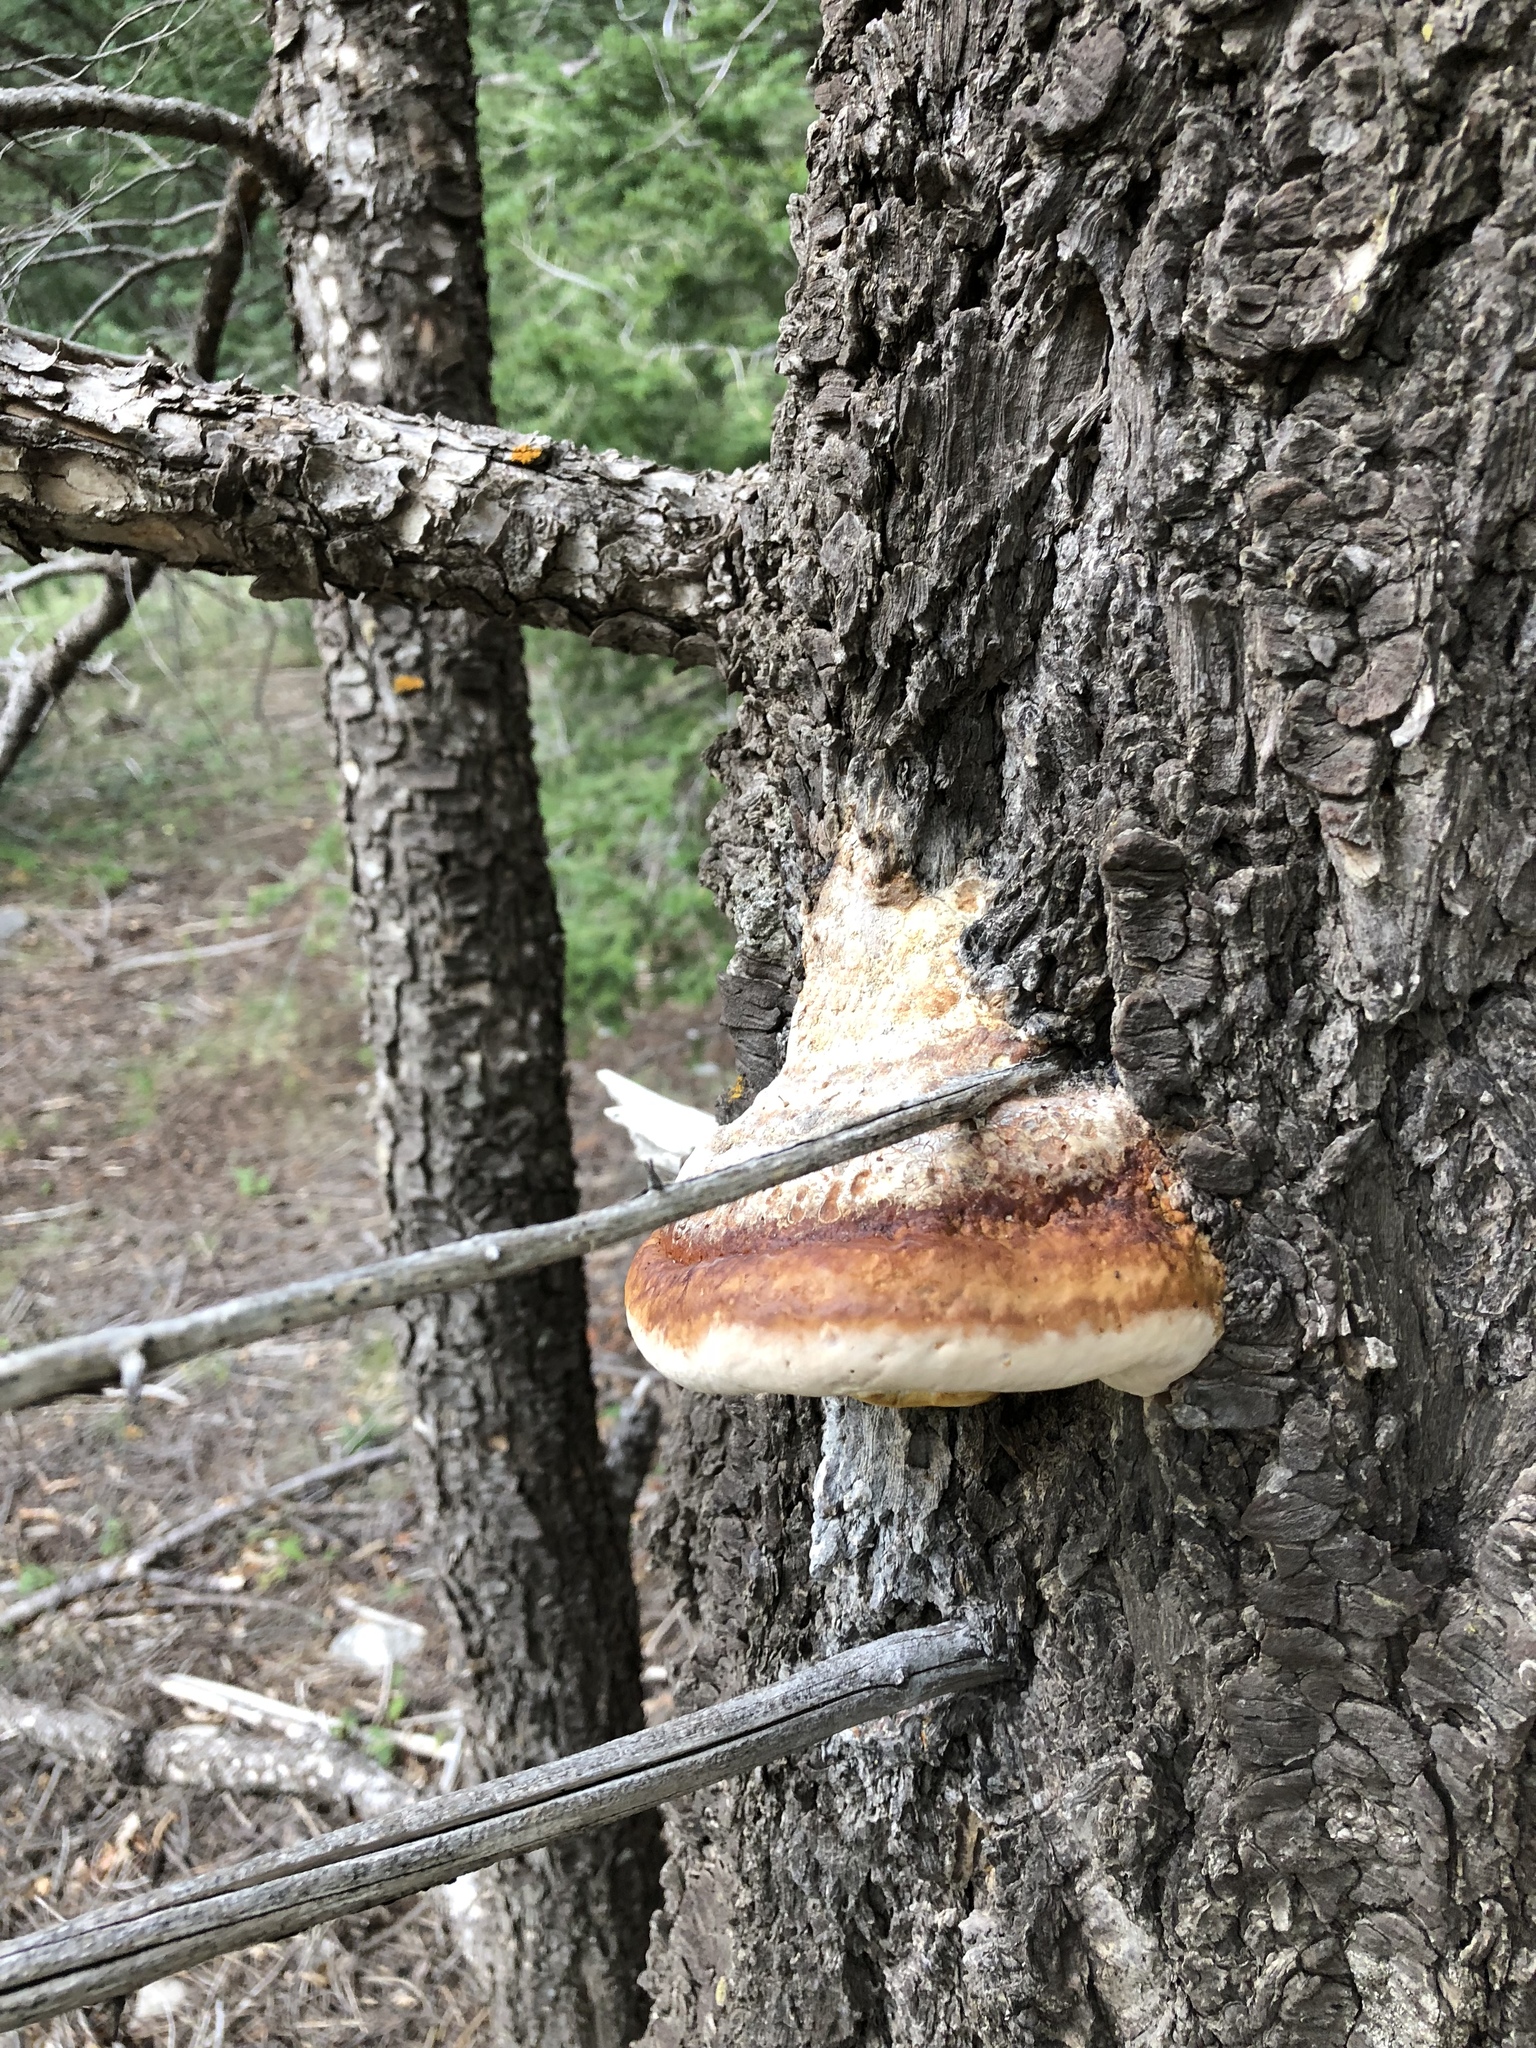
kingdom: Fungi
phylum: Basidiomycota
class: Agaricomycetes
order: Polyporales
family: Fomitopsidaceae
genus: Fomitopsis
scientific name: Fomitopsis schrenkii
